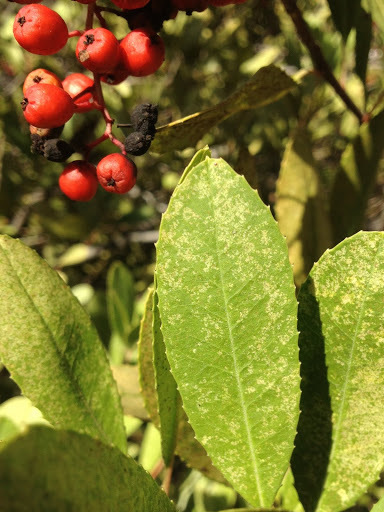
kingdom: Plantae
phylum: Tracheophyta
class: Magnoliopsida
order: Rosales
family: Rosaceae
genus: Heteromeles
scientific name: Heteromeles arbutifolia
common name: California-holly
